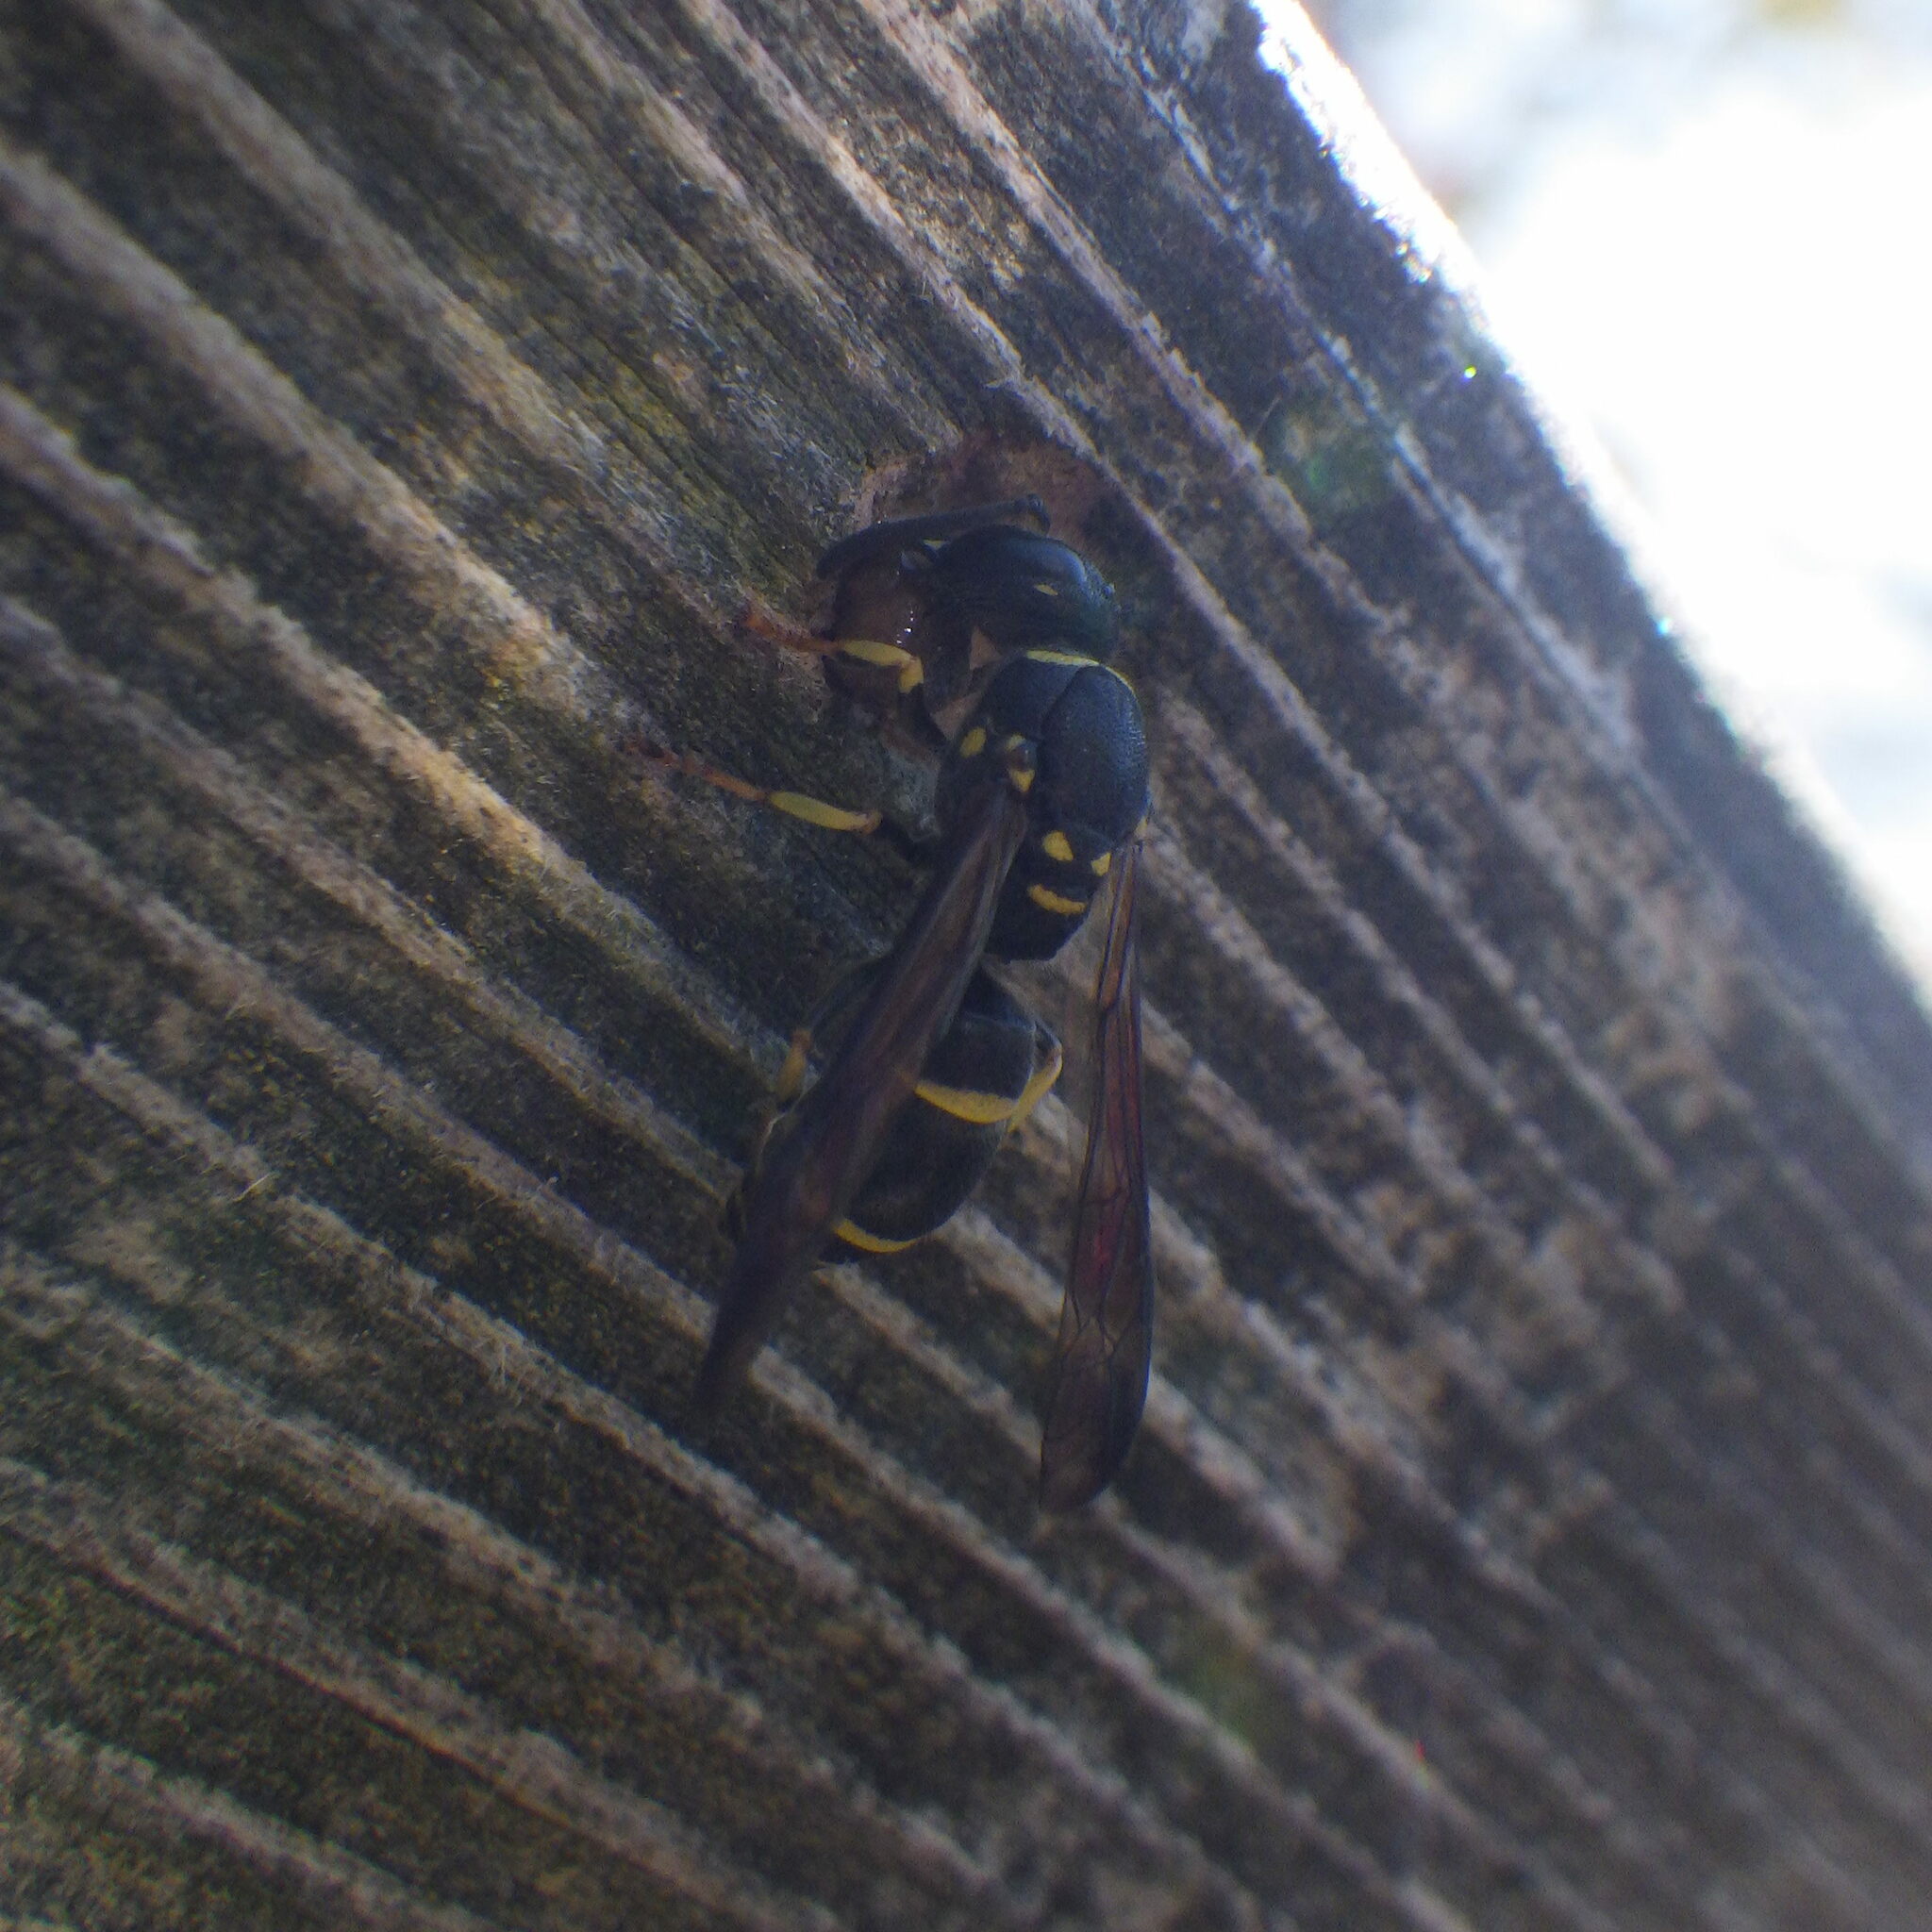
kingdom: Animalia
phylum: Arthropoda
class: Insecta
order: Hymenoptera
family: Vespidae
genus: Ancistrocerus
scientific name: Ancistrocerus adiabatus
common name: Bramble mason wasp
